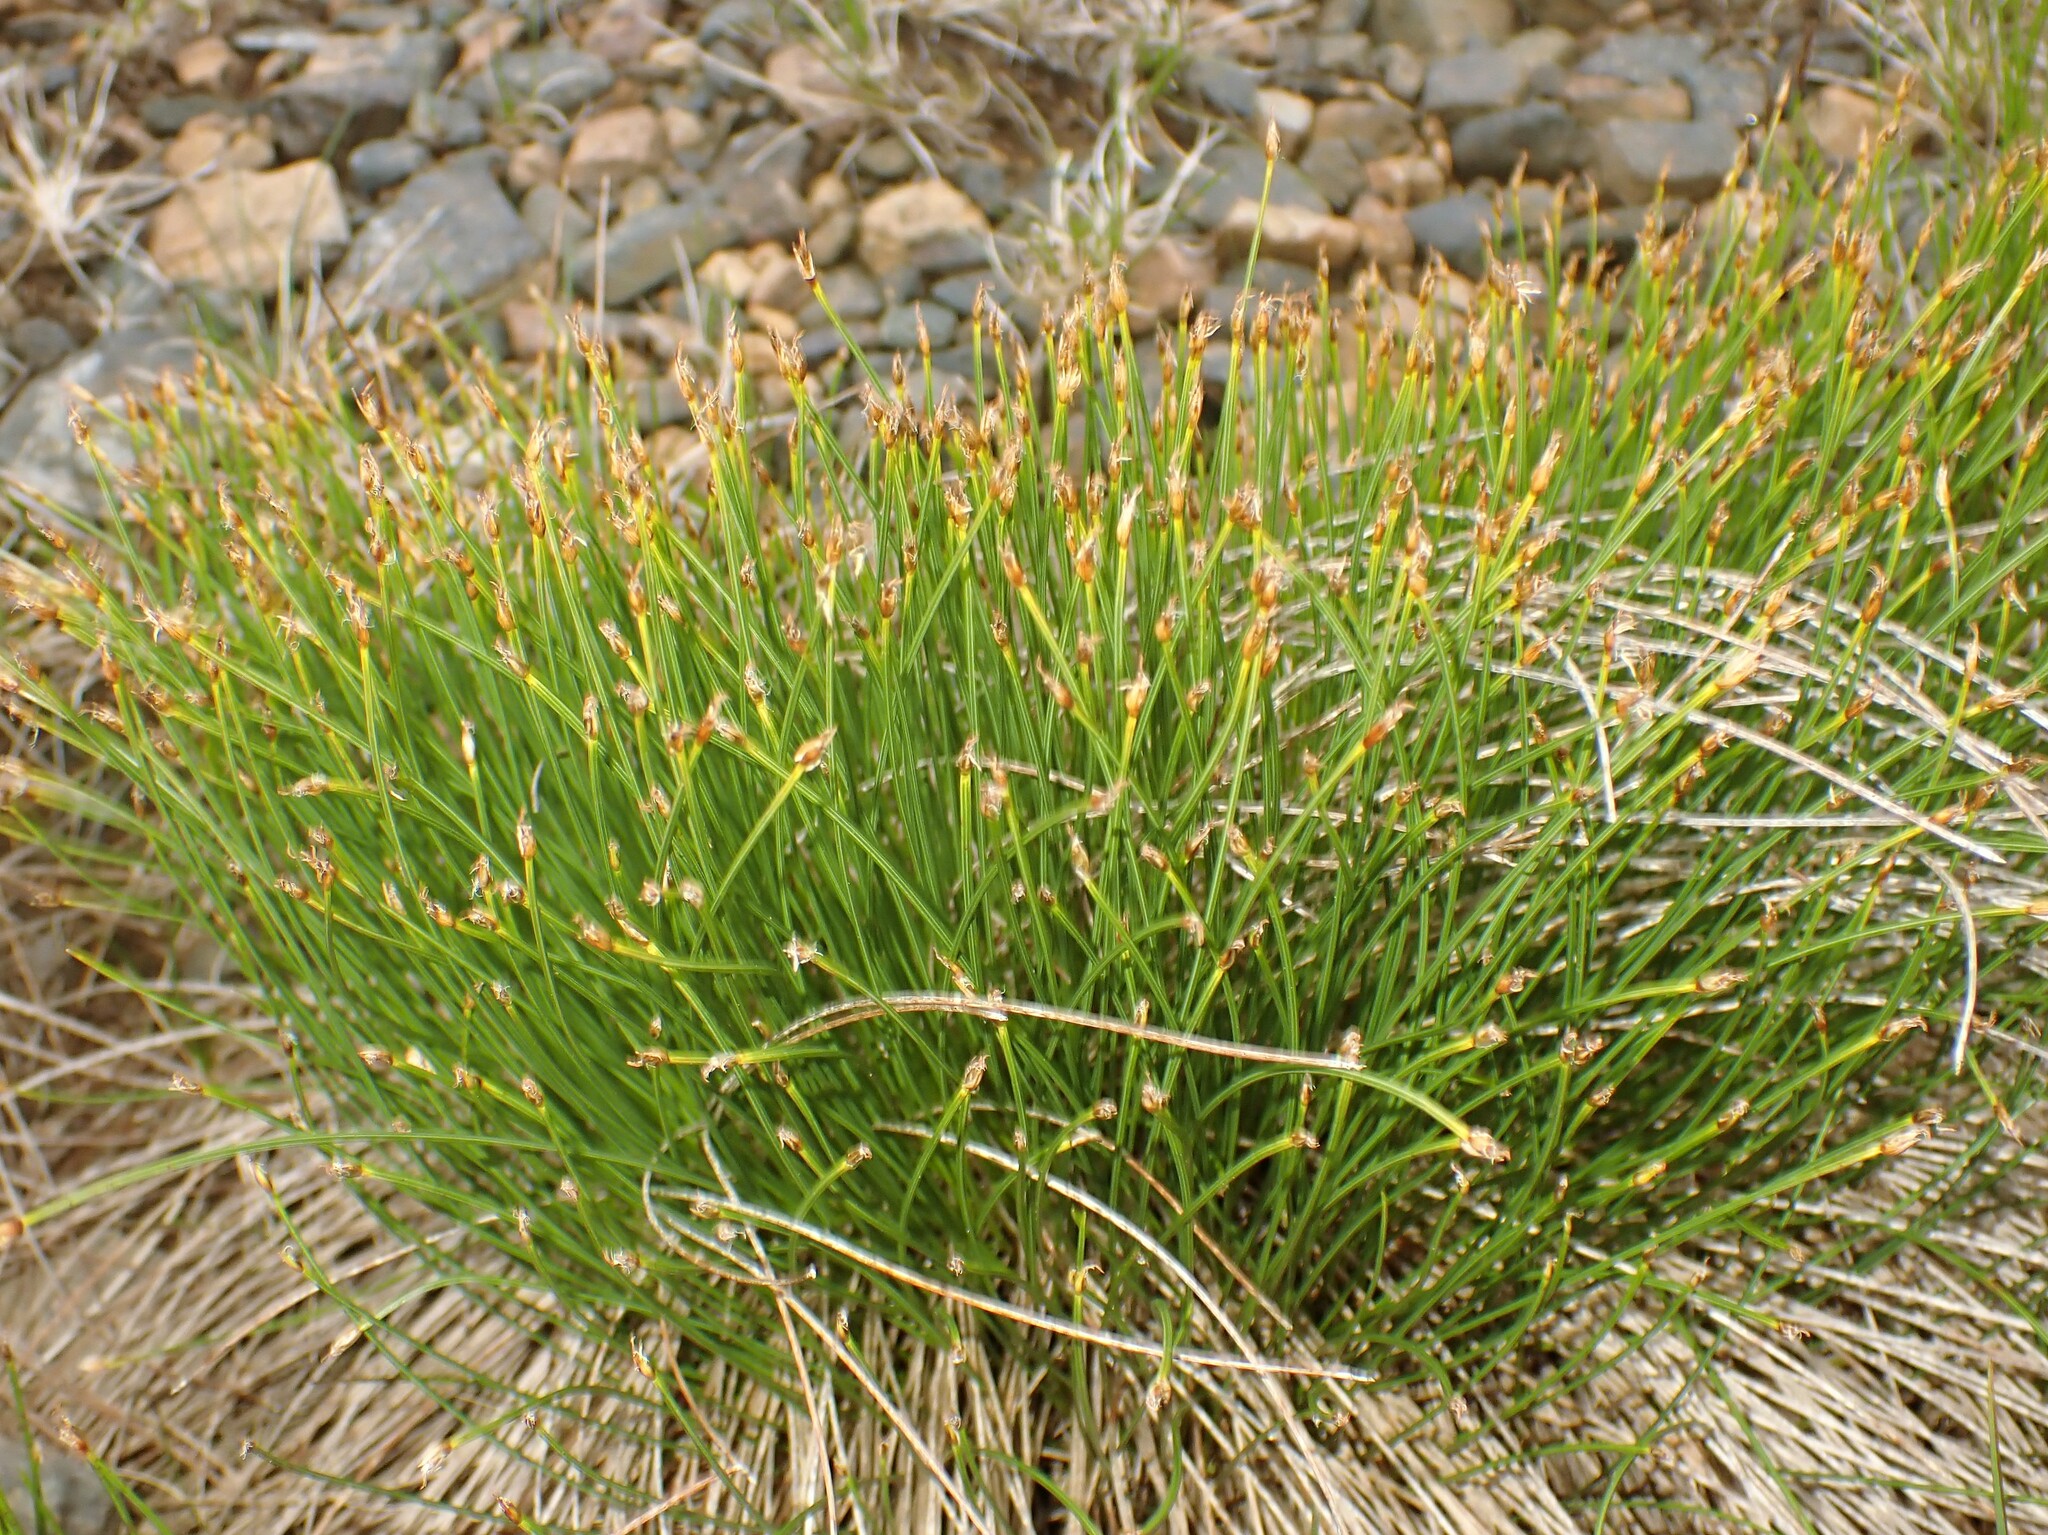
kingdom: Plantae
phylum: Tracheophyta
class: Liliopsida
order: Poales
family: Cyperaceae
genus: Trichophorum
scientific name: Trichophorum cespitosum
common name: Cespitose bulrush
